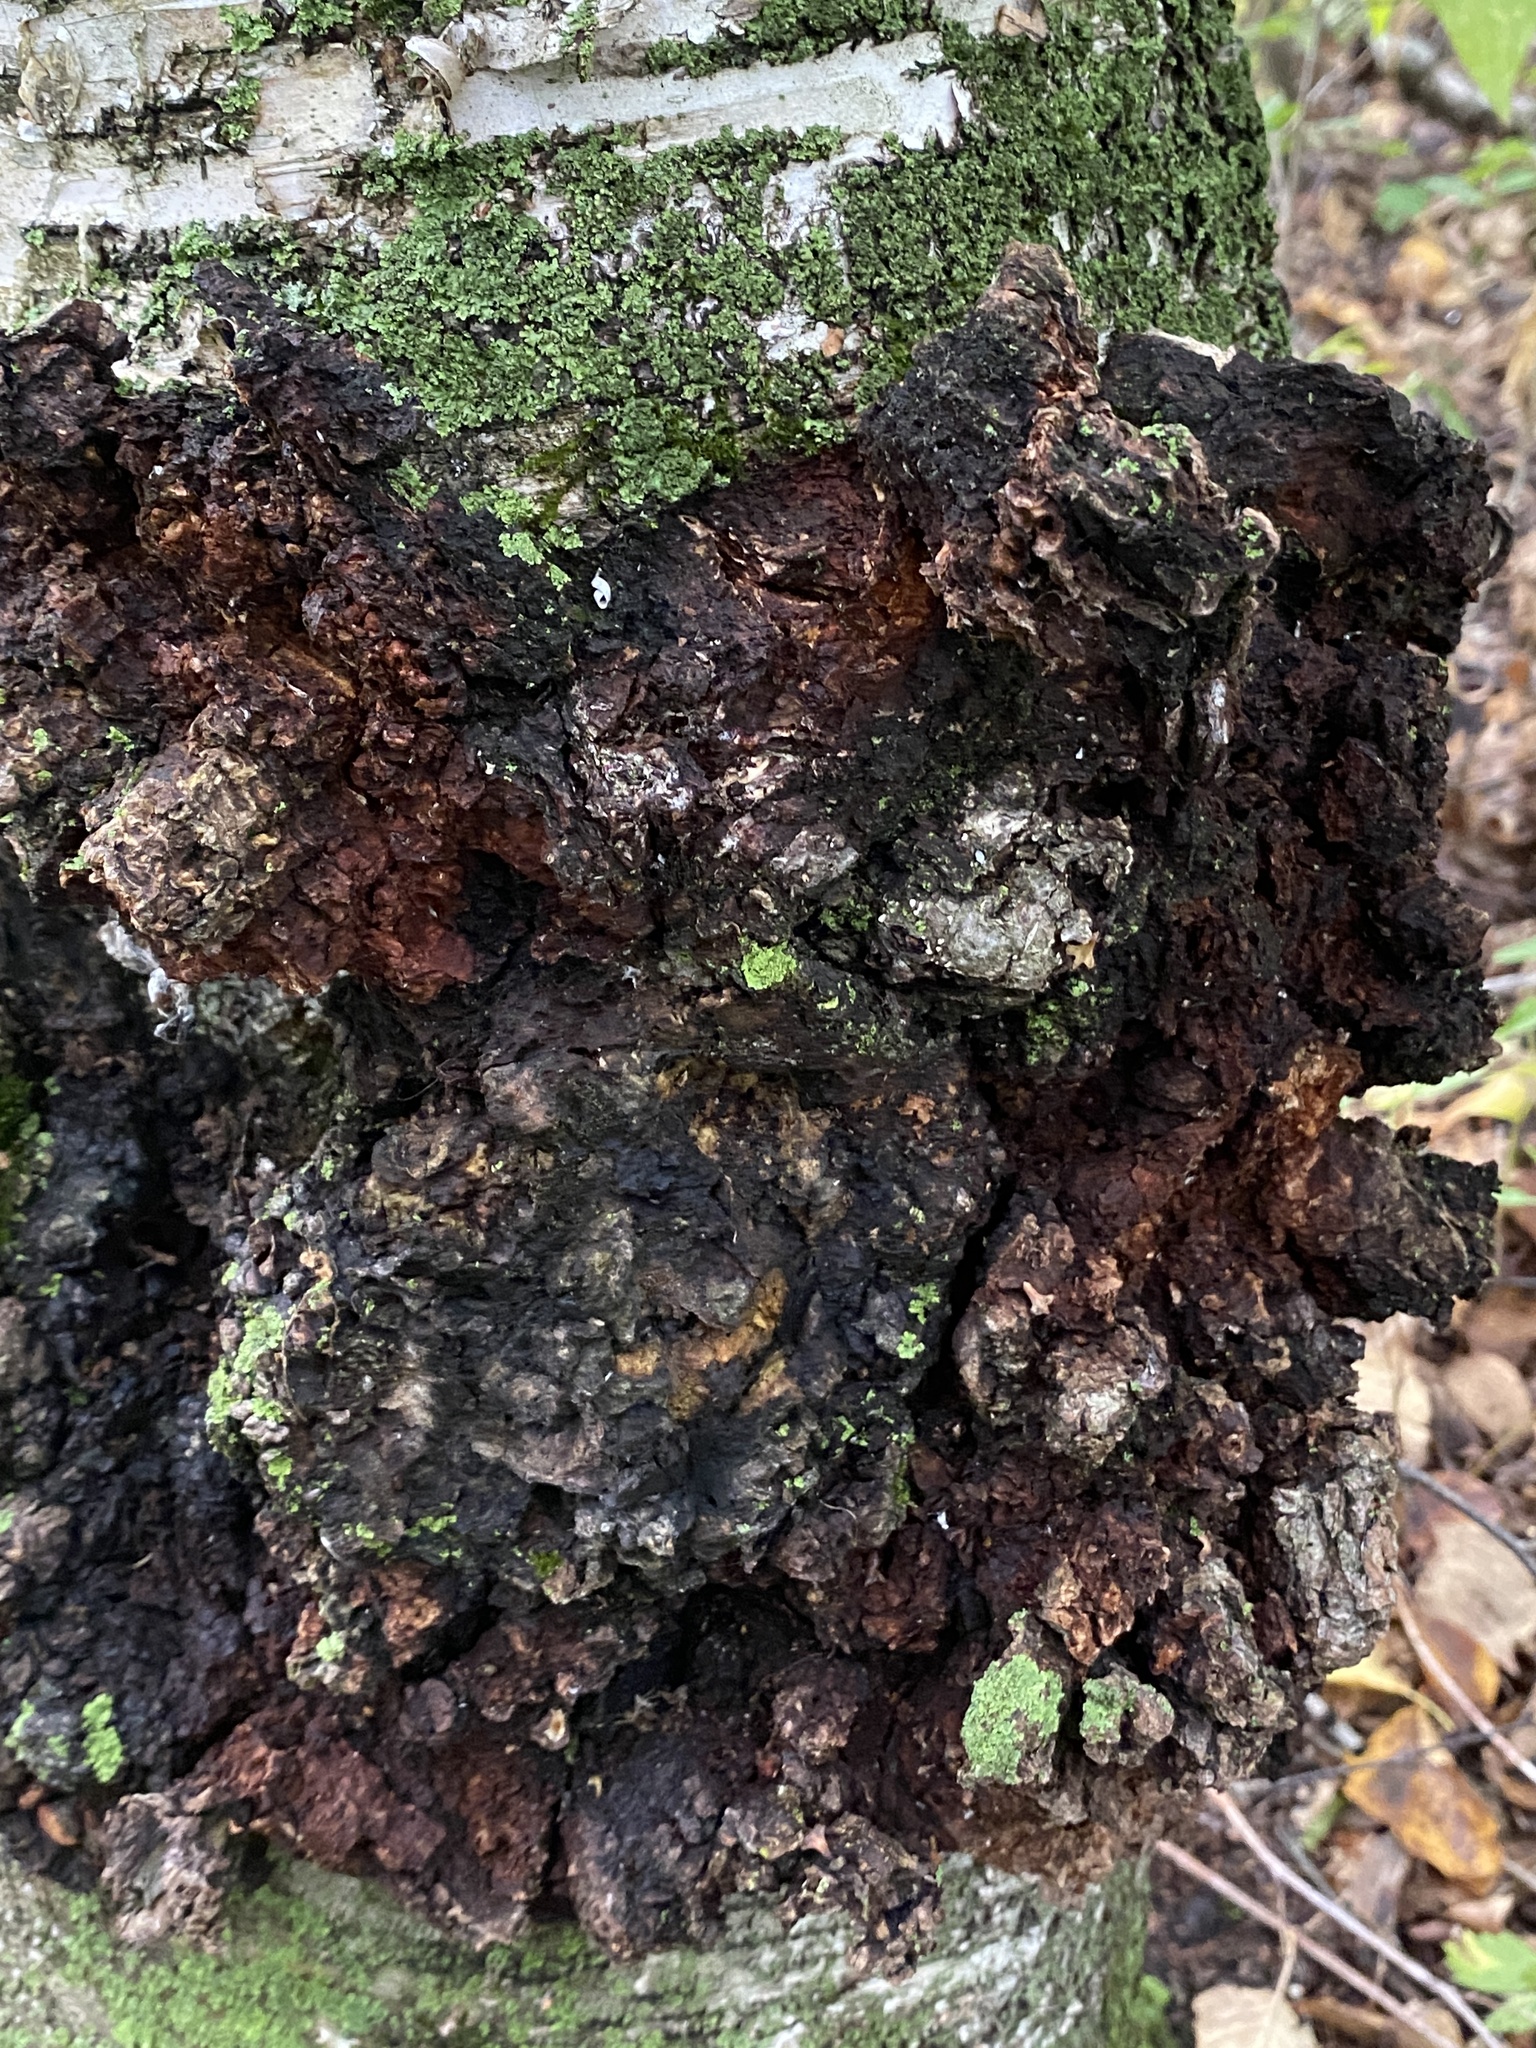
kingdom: Fungi
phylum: Basidiomycota
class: Agaricomycetes
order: Hymenochaetales
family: Hymenochaetaceae
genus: Inonotus
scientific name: Inonotus obliquus
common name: Chaga
